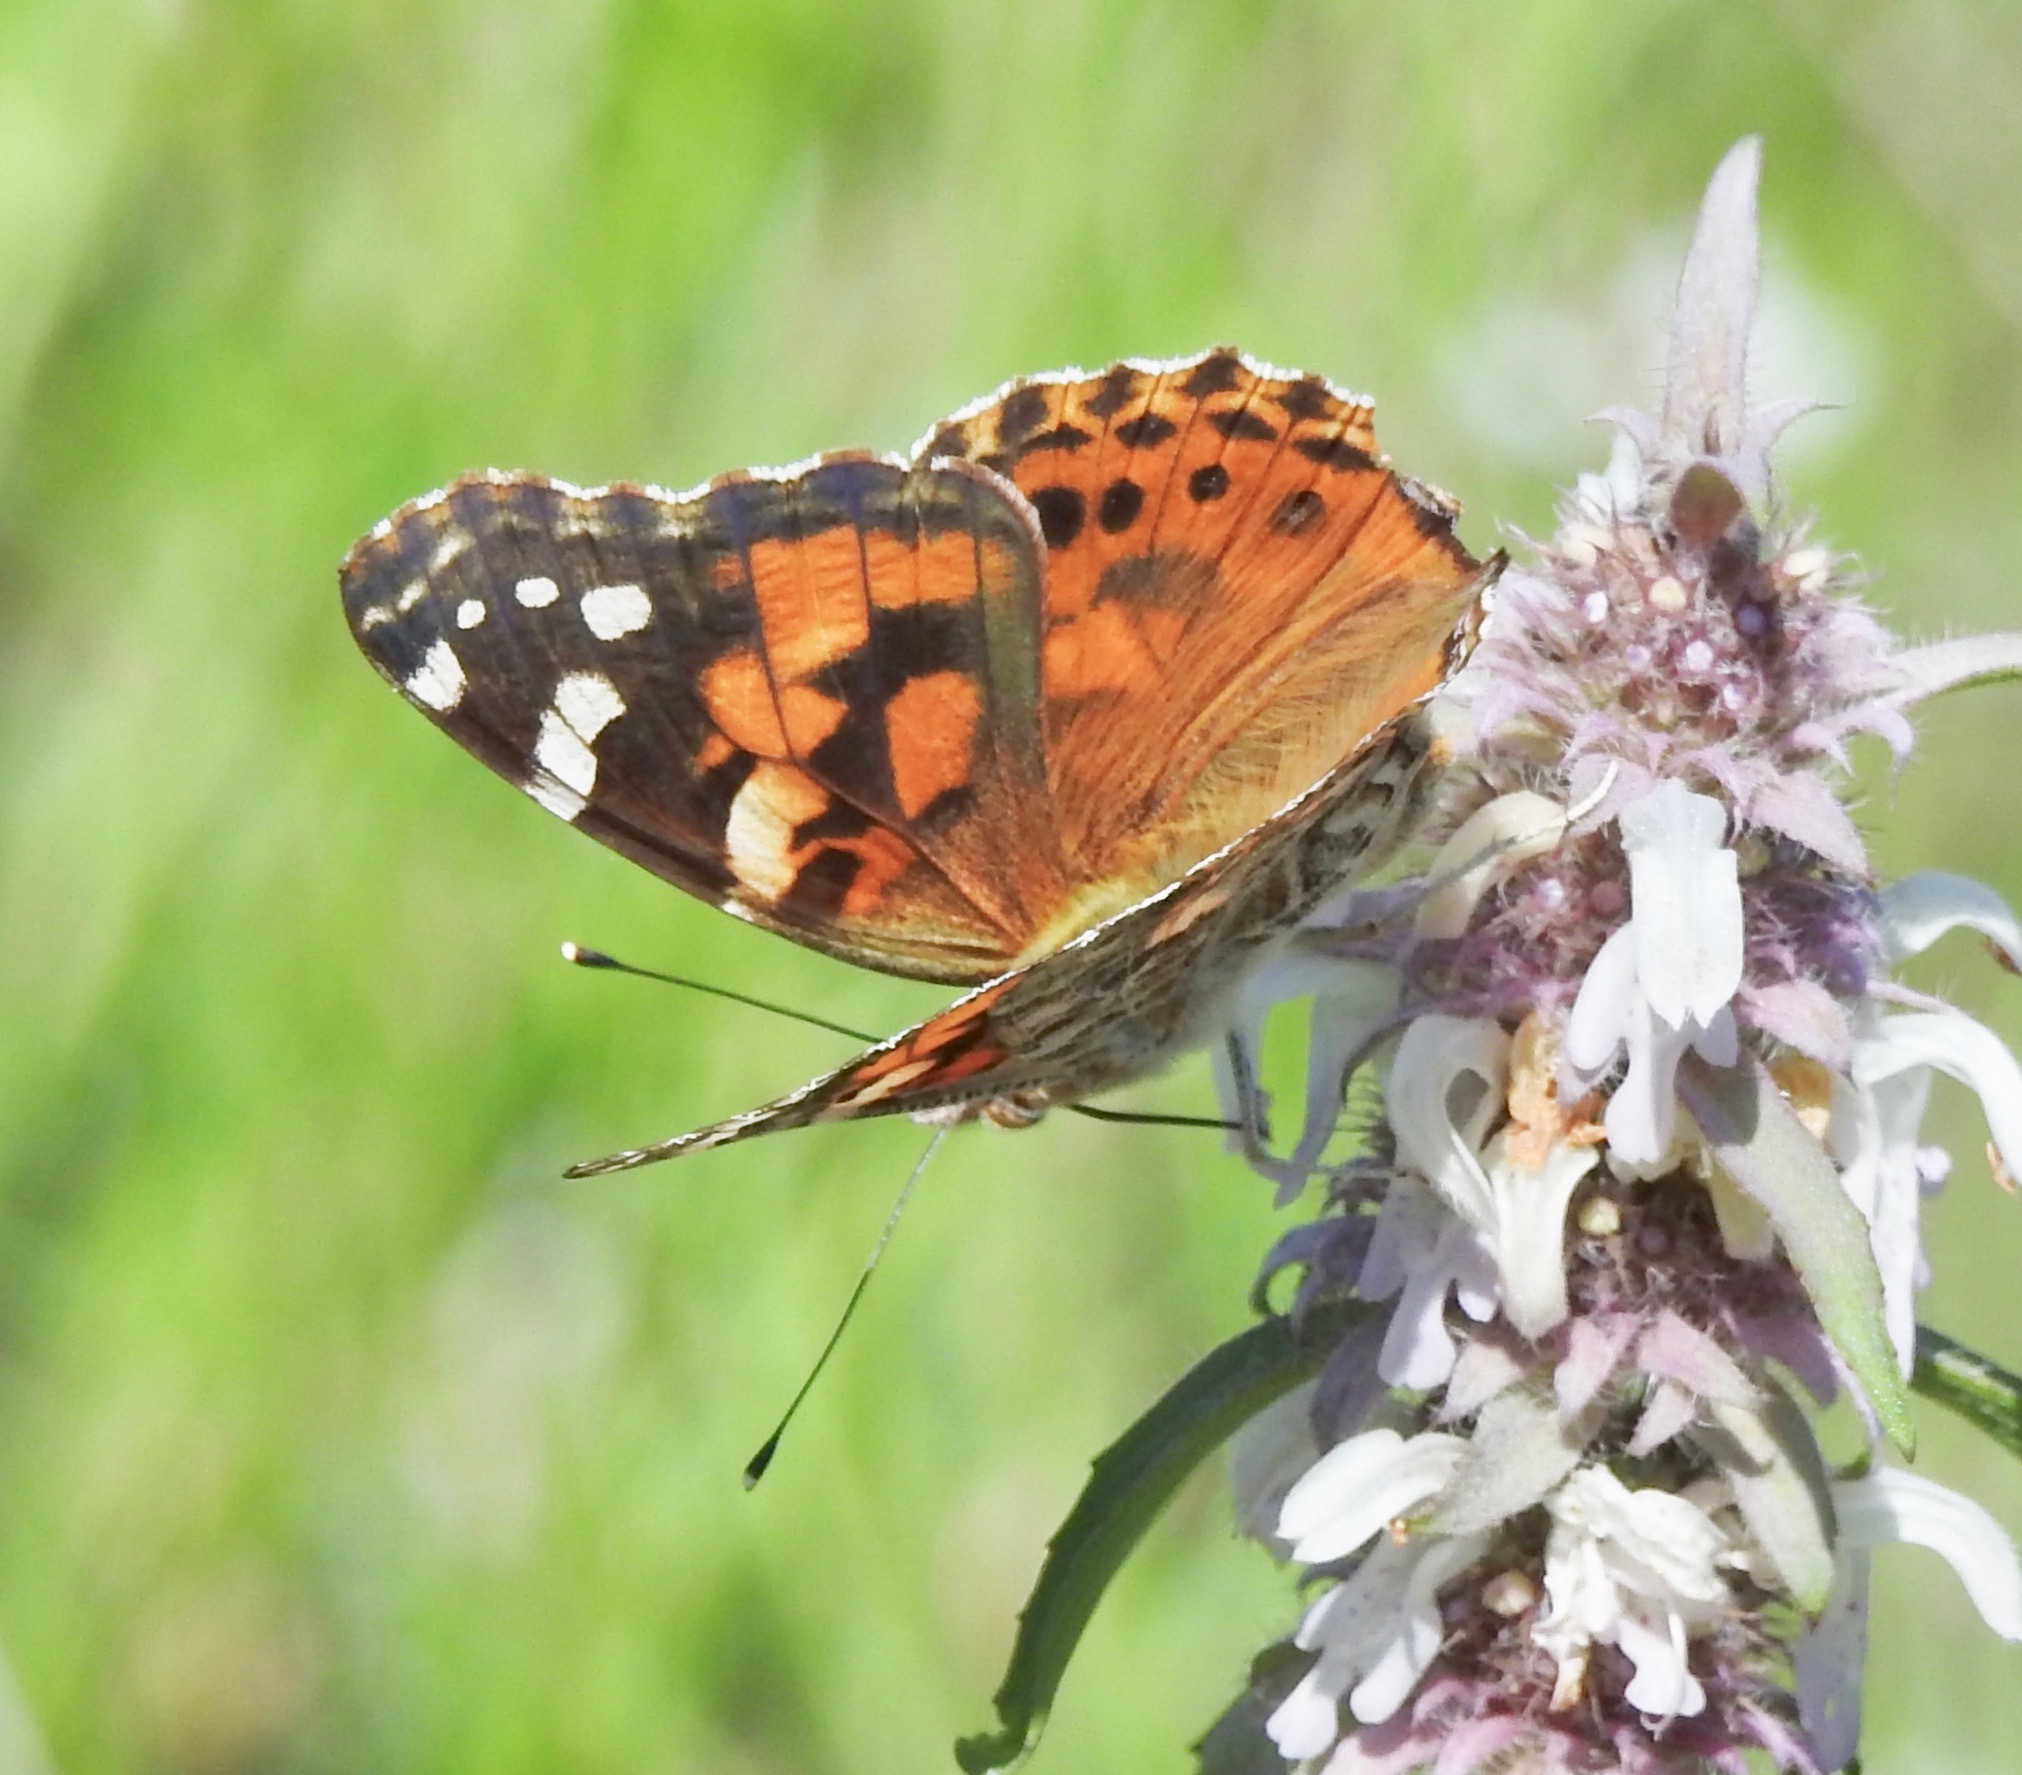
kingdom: Animalia
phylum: Arthropoda
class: Insecta
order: Lepidoptera
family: Nymphalidae
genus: Vanessa
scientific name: Vanessa cardui
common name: Painted lady
